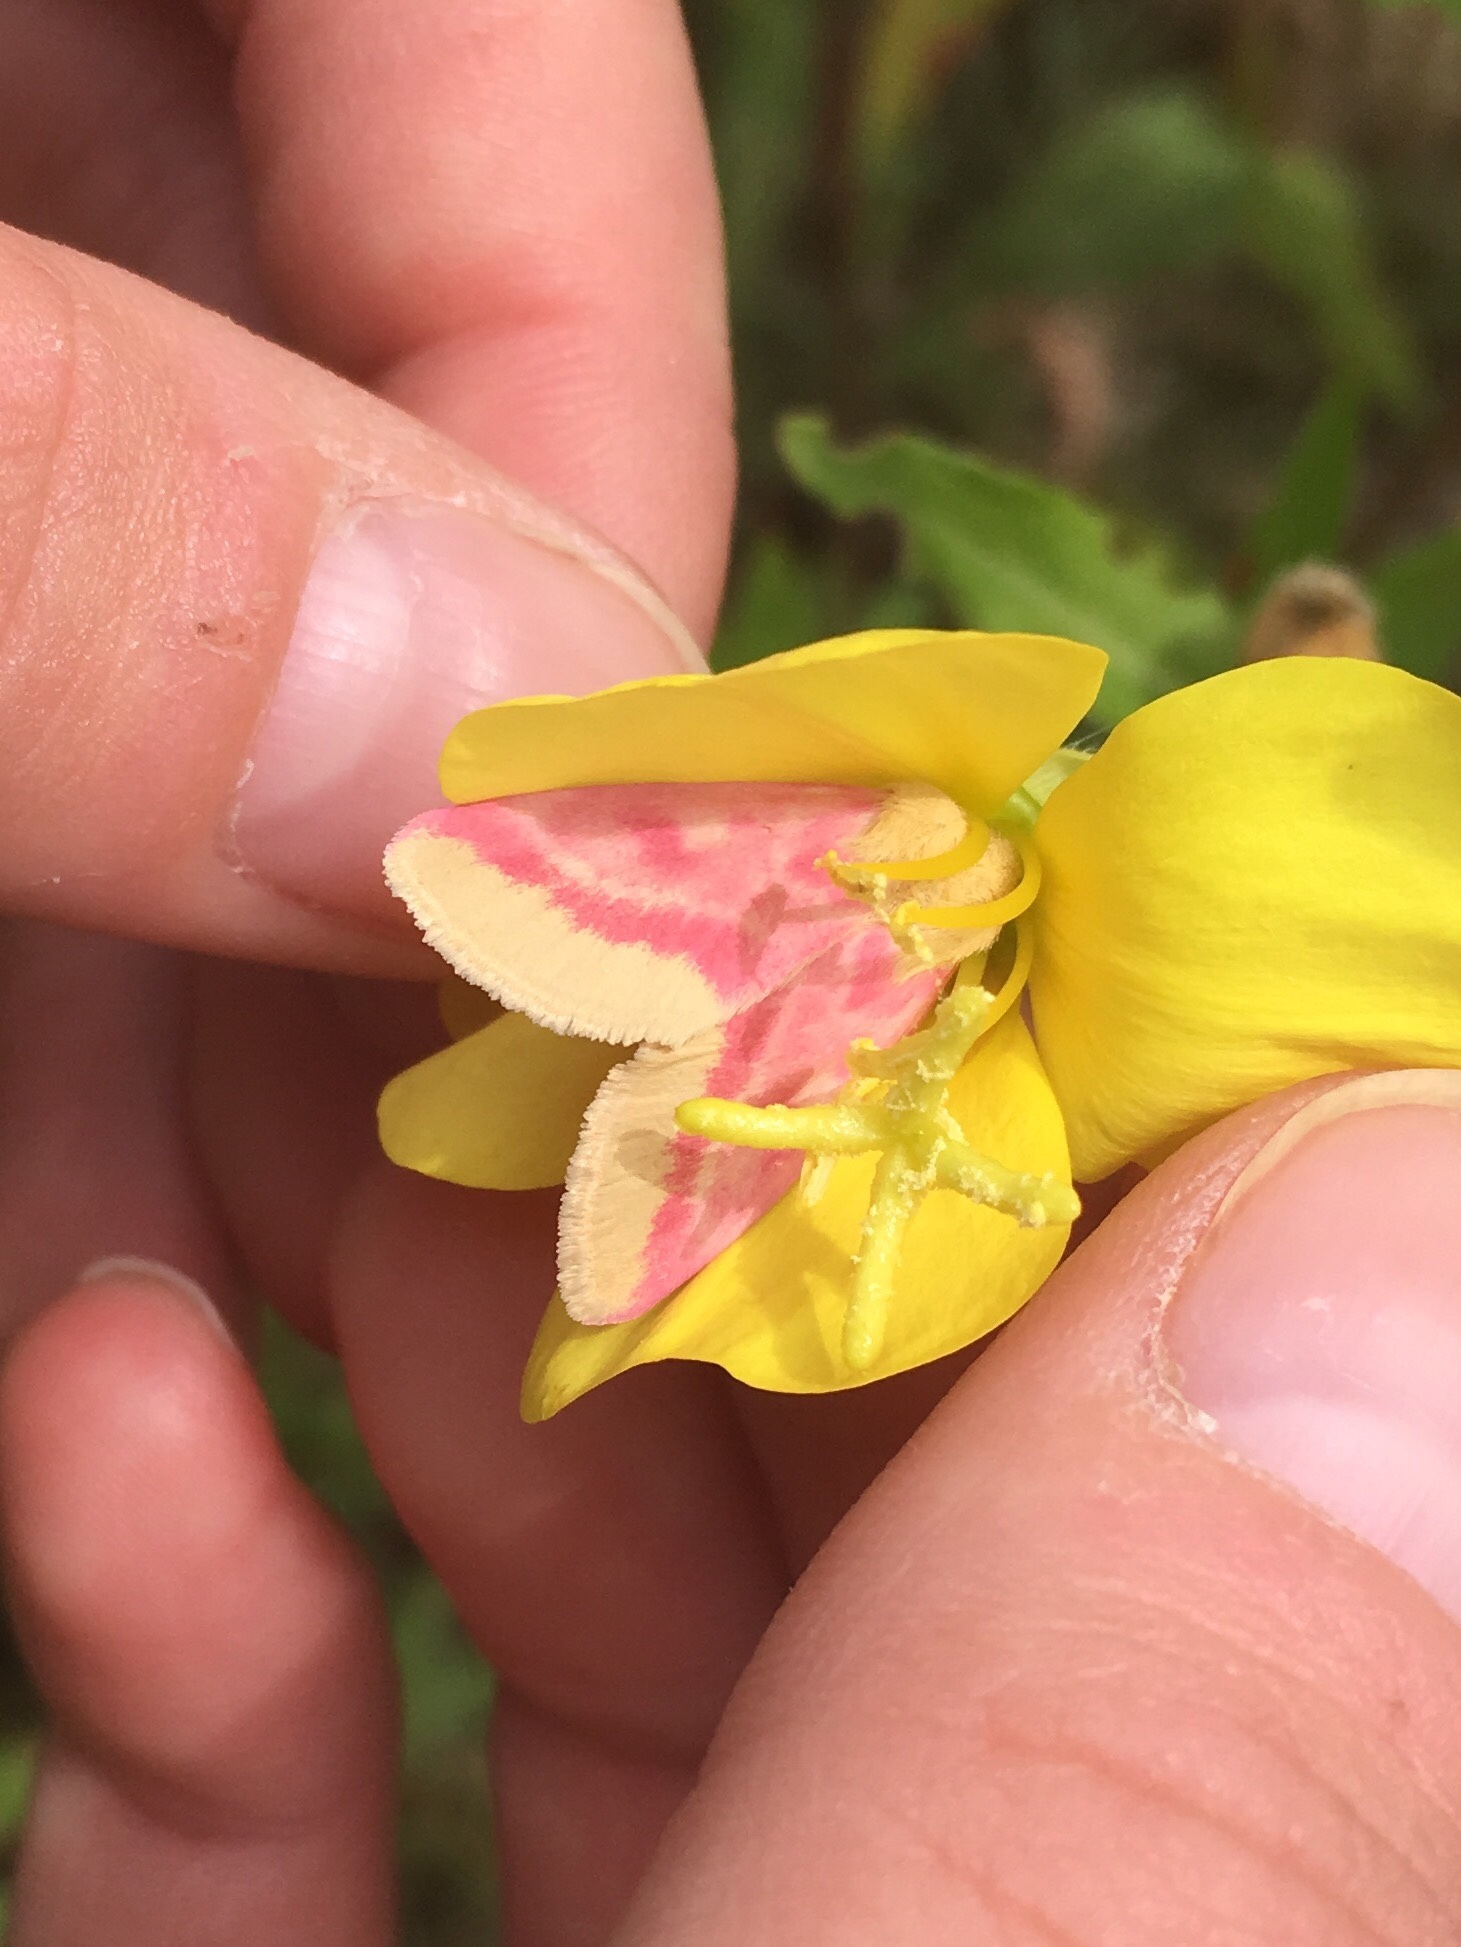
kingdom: Animalia
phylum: Arthropoda
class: Insecta
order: Lepidoptera
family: Noctuidae
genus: Schinia
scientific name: Schinia florida
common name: Primrose moth
